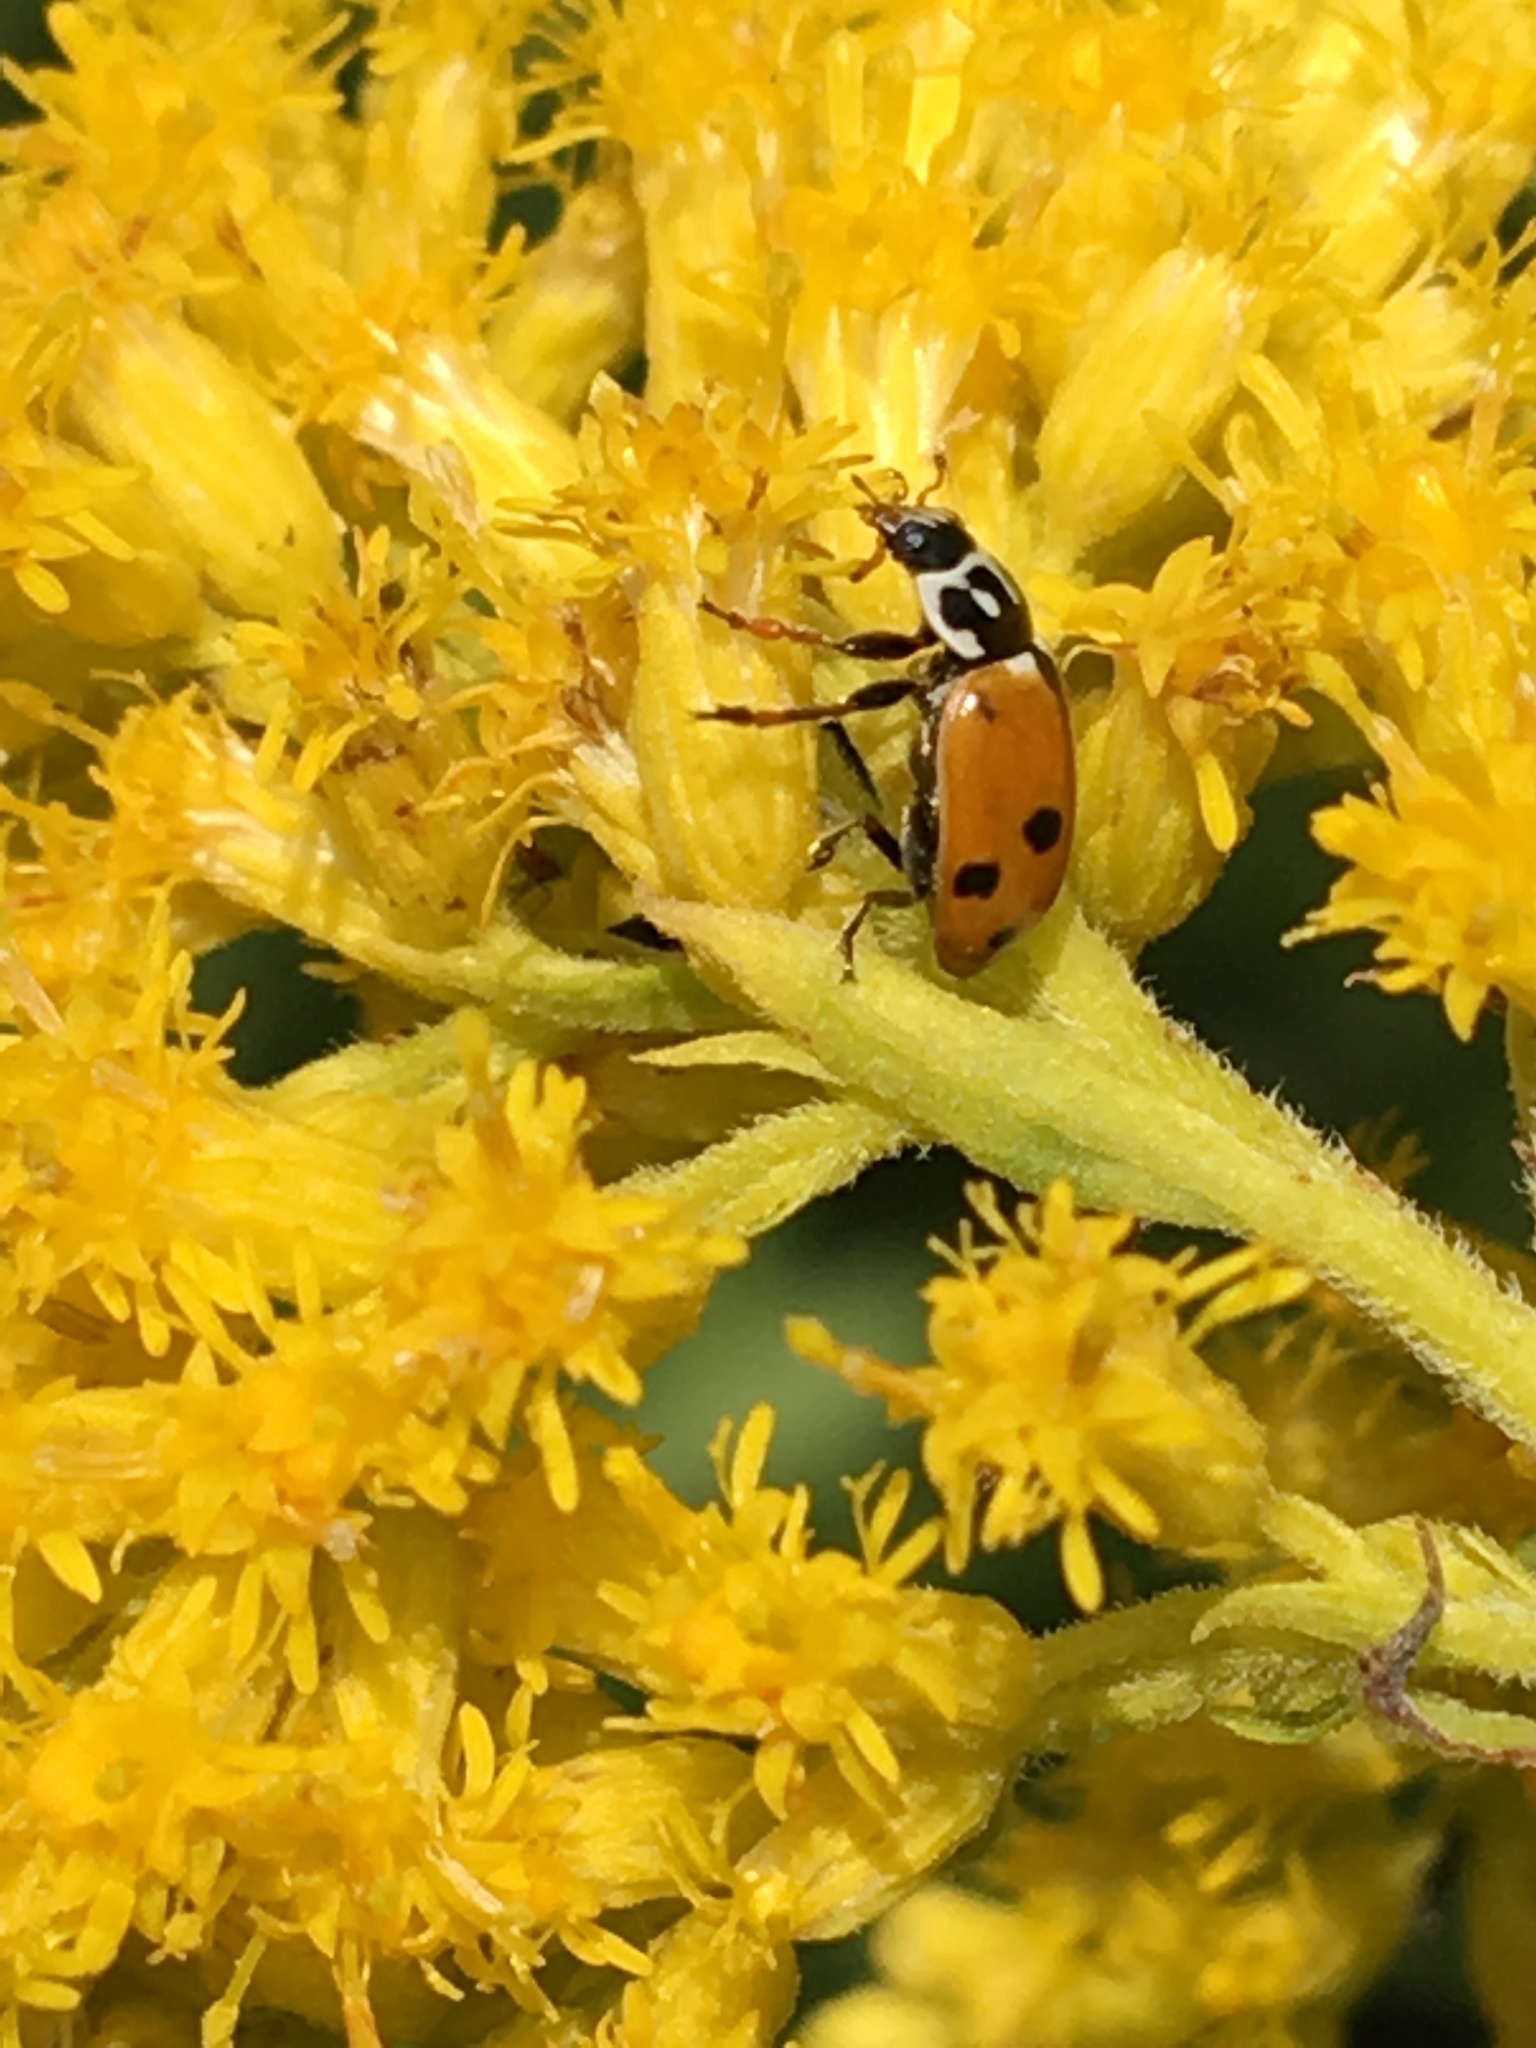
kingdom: Animalia
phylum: Arthropoda
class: Insecta
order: Coleoptera
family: Coccinellidae
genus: Hippodamia
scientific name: Hippodamia variegata
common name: Ladybird beetle
